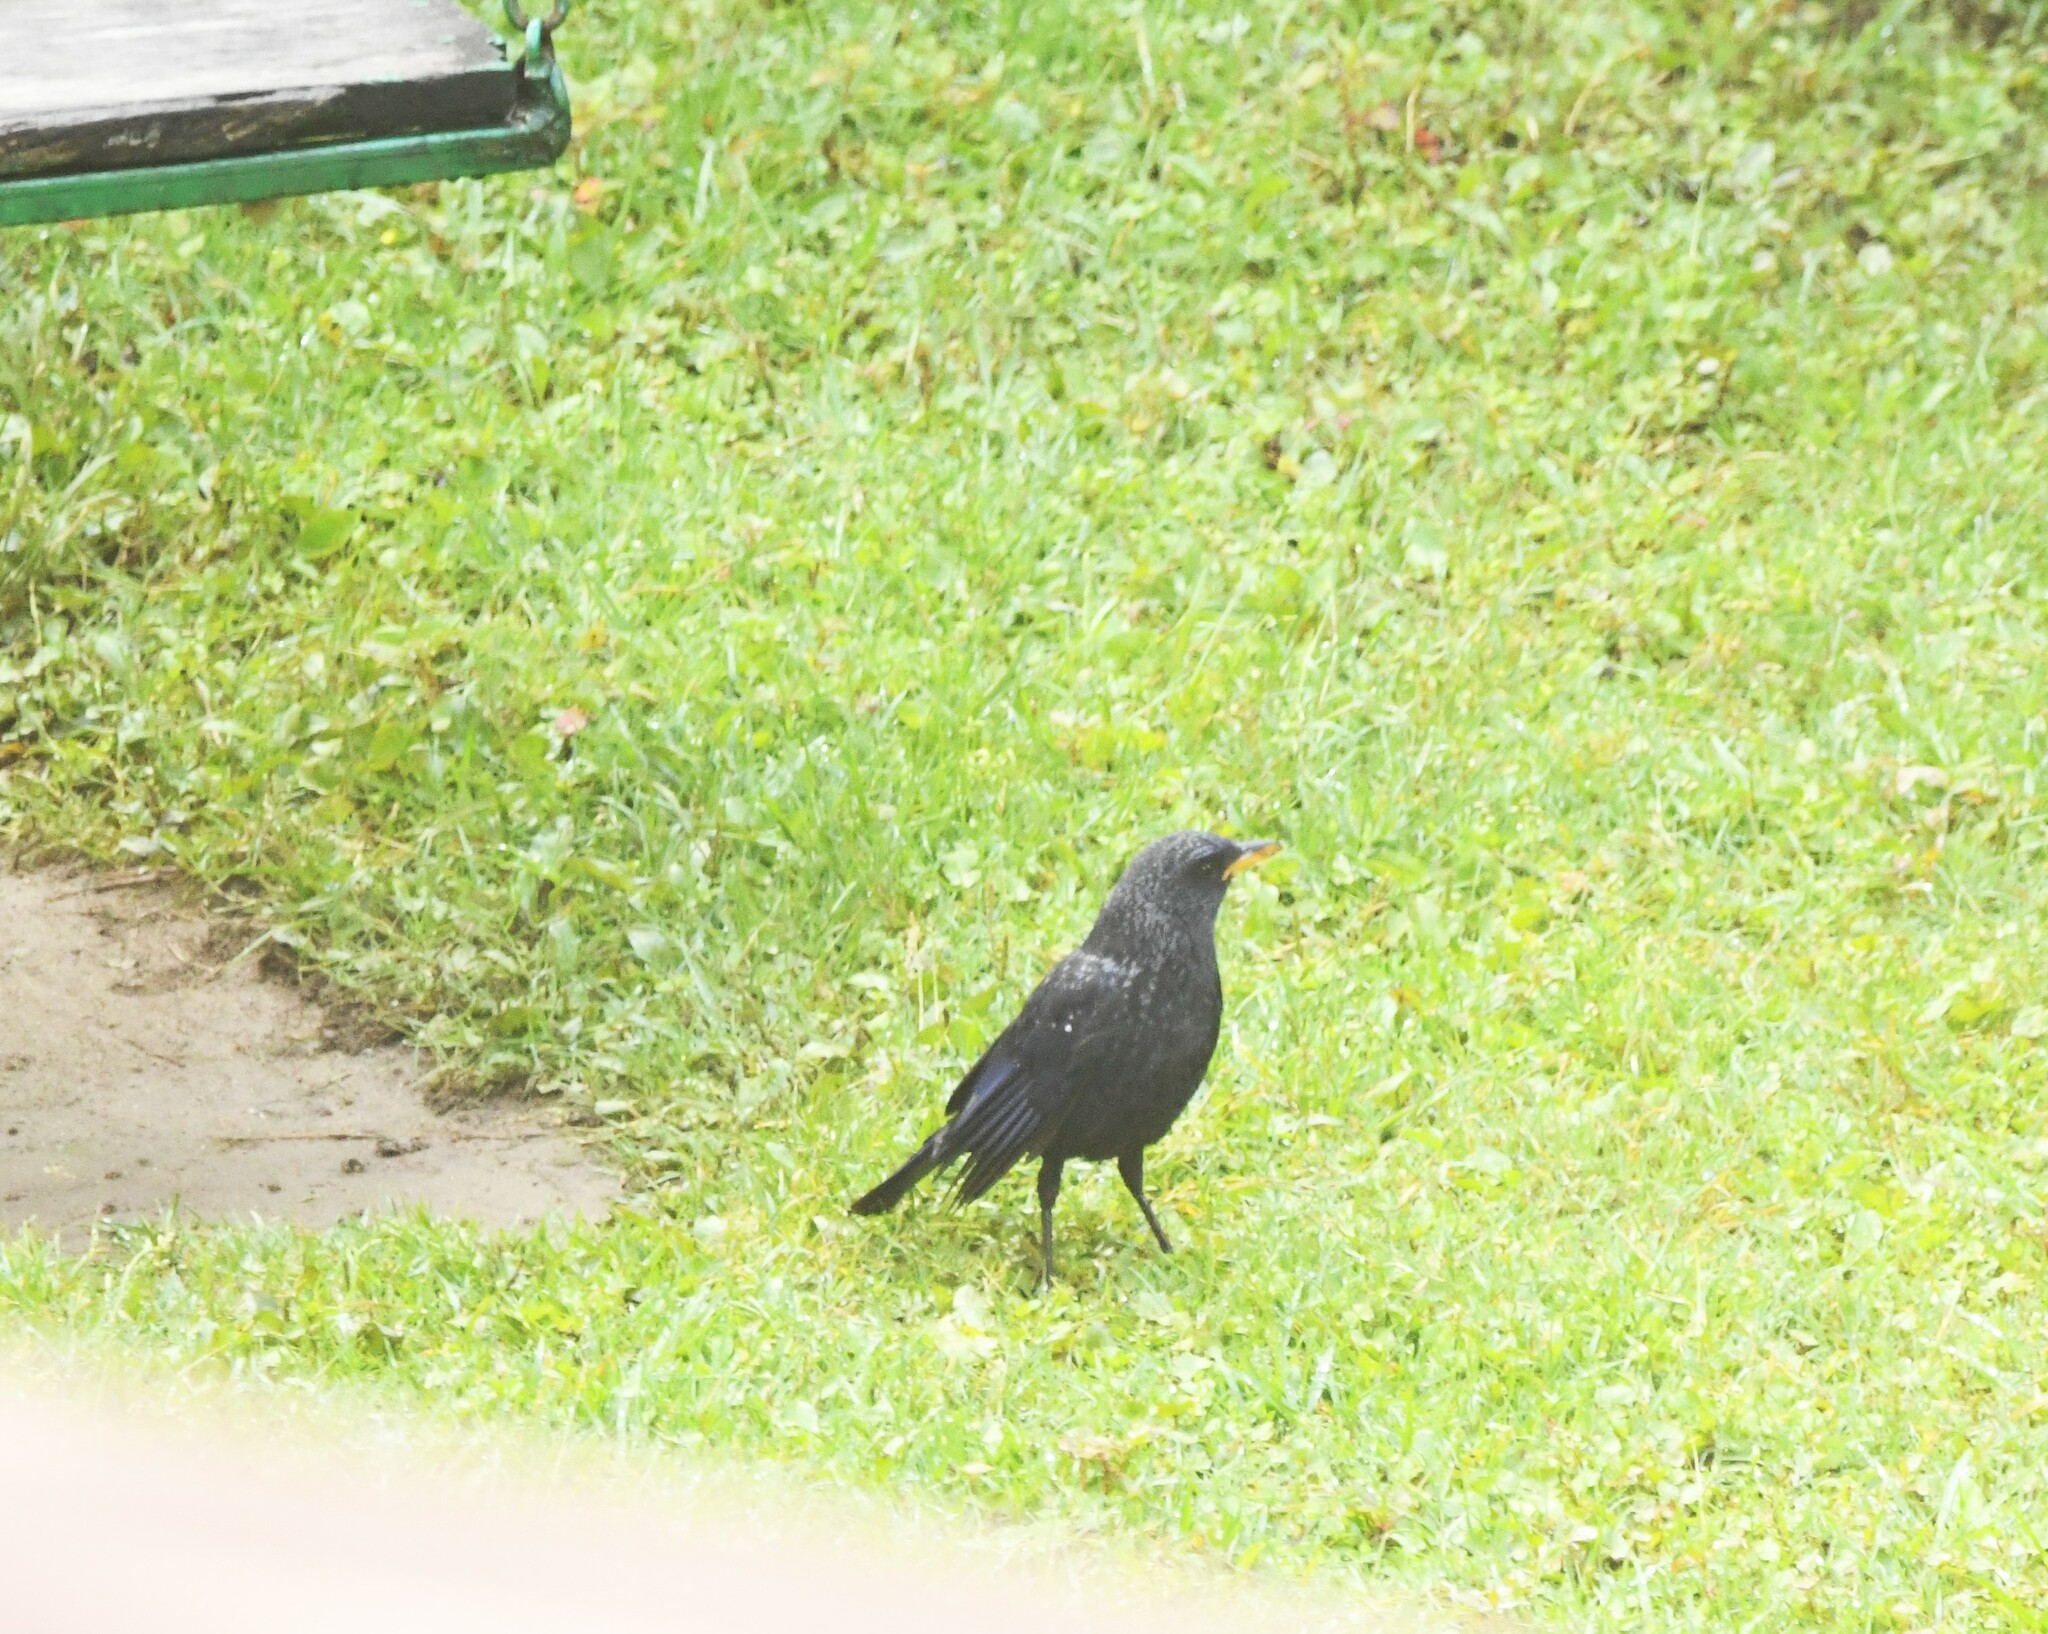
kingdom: Animalia
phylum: Chordata
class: Aves
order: Passeriformes
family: Muscicapidae
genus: Myophonus
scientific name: Myophonus caeruleus
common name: Blue whistling-thrush
